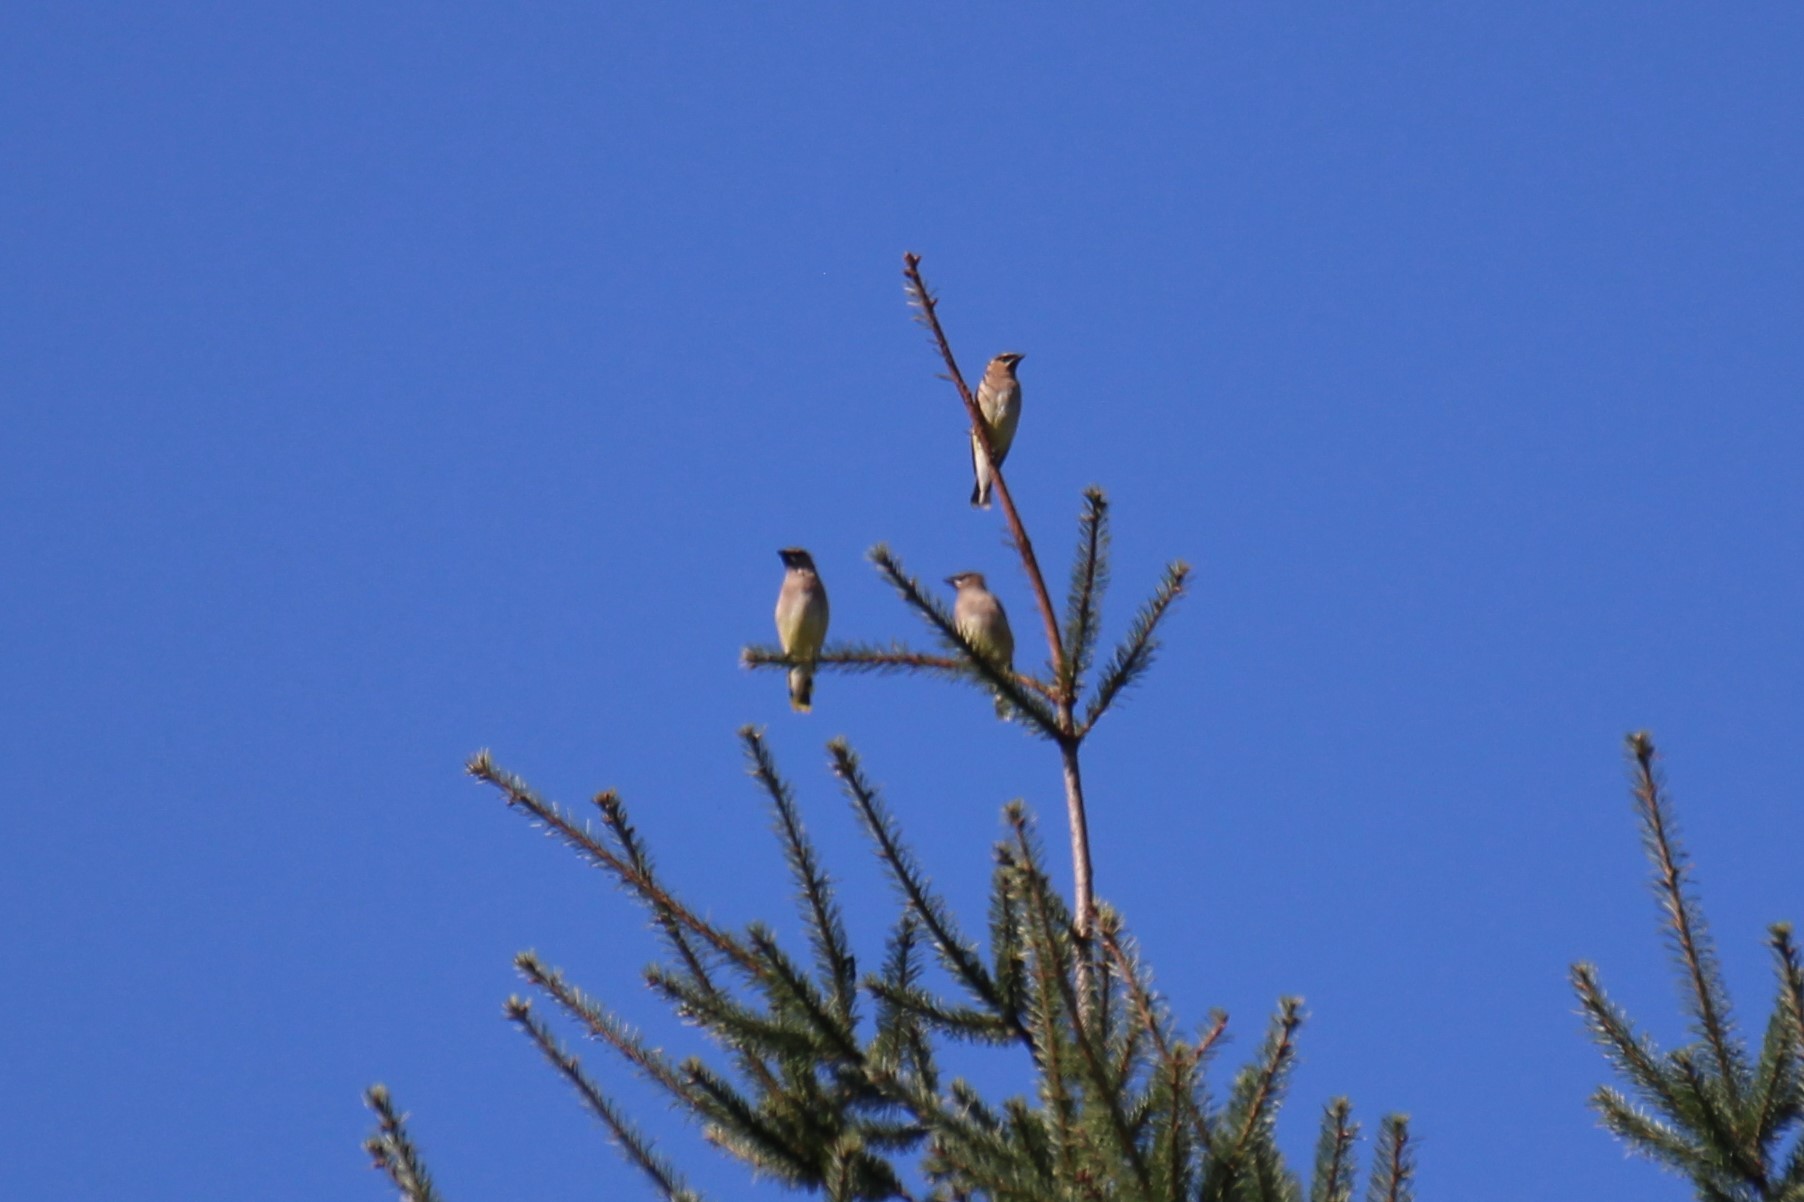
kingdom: Animalia
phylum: Chordata
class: Aves
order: Passeriformes
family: Bombycillidae
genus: Bombycilla
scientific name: Bombycilla cedrorum
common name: Cedar waxwing
